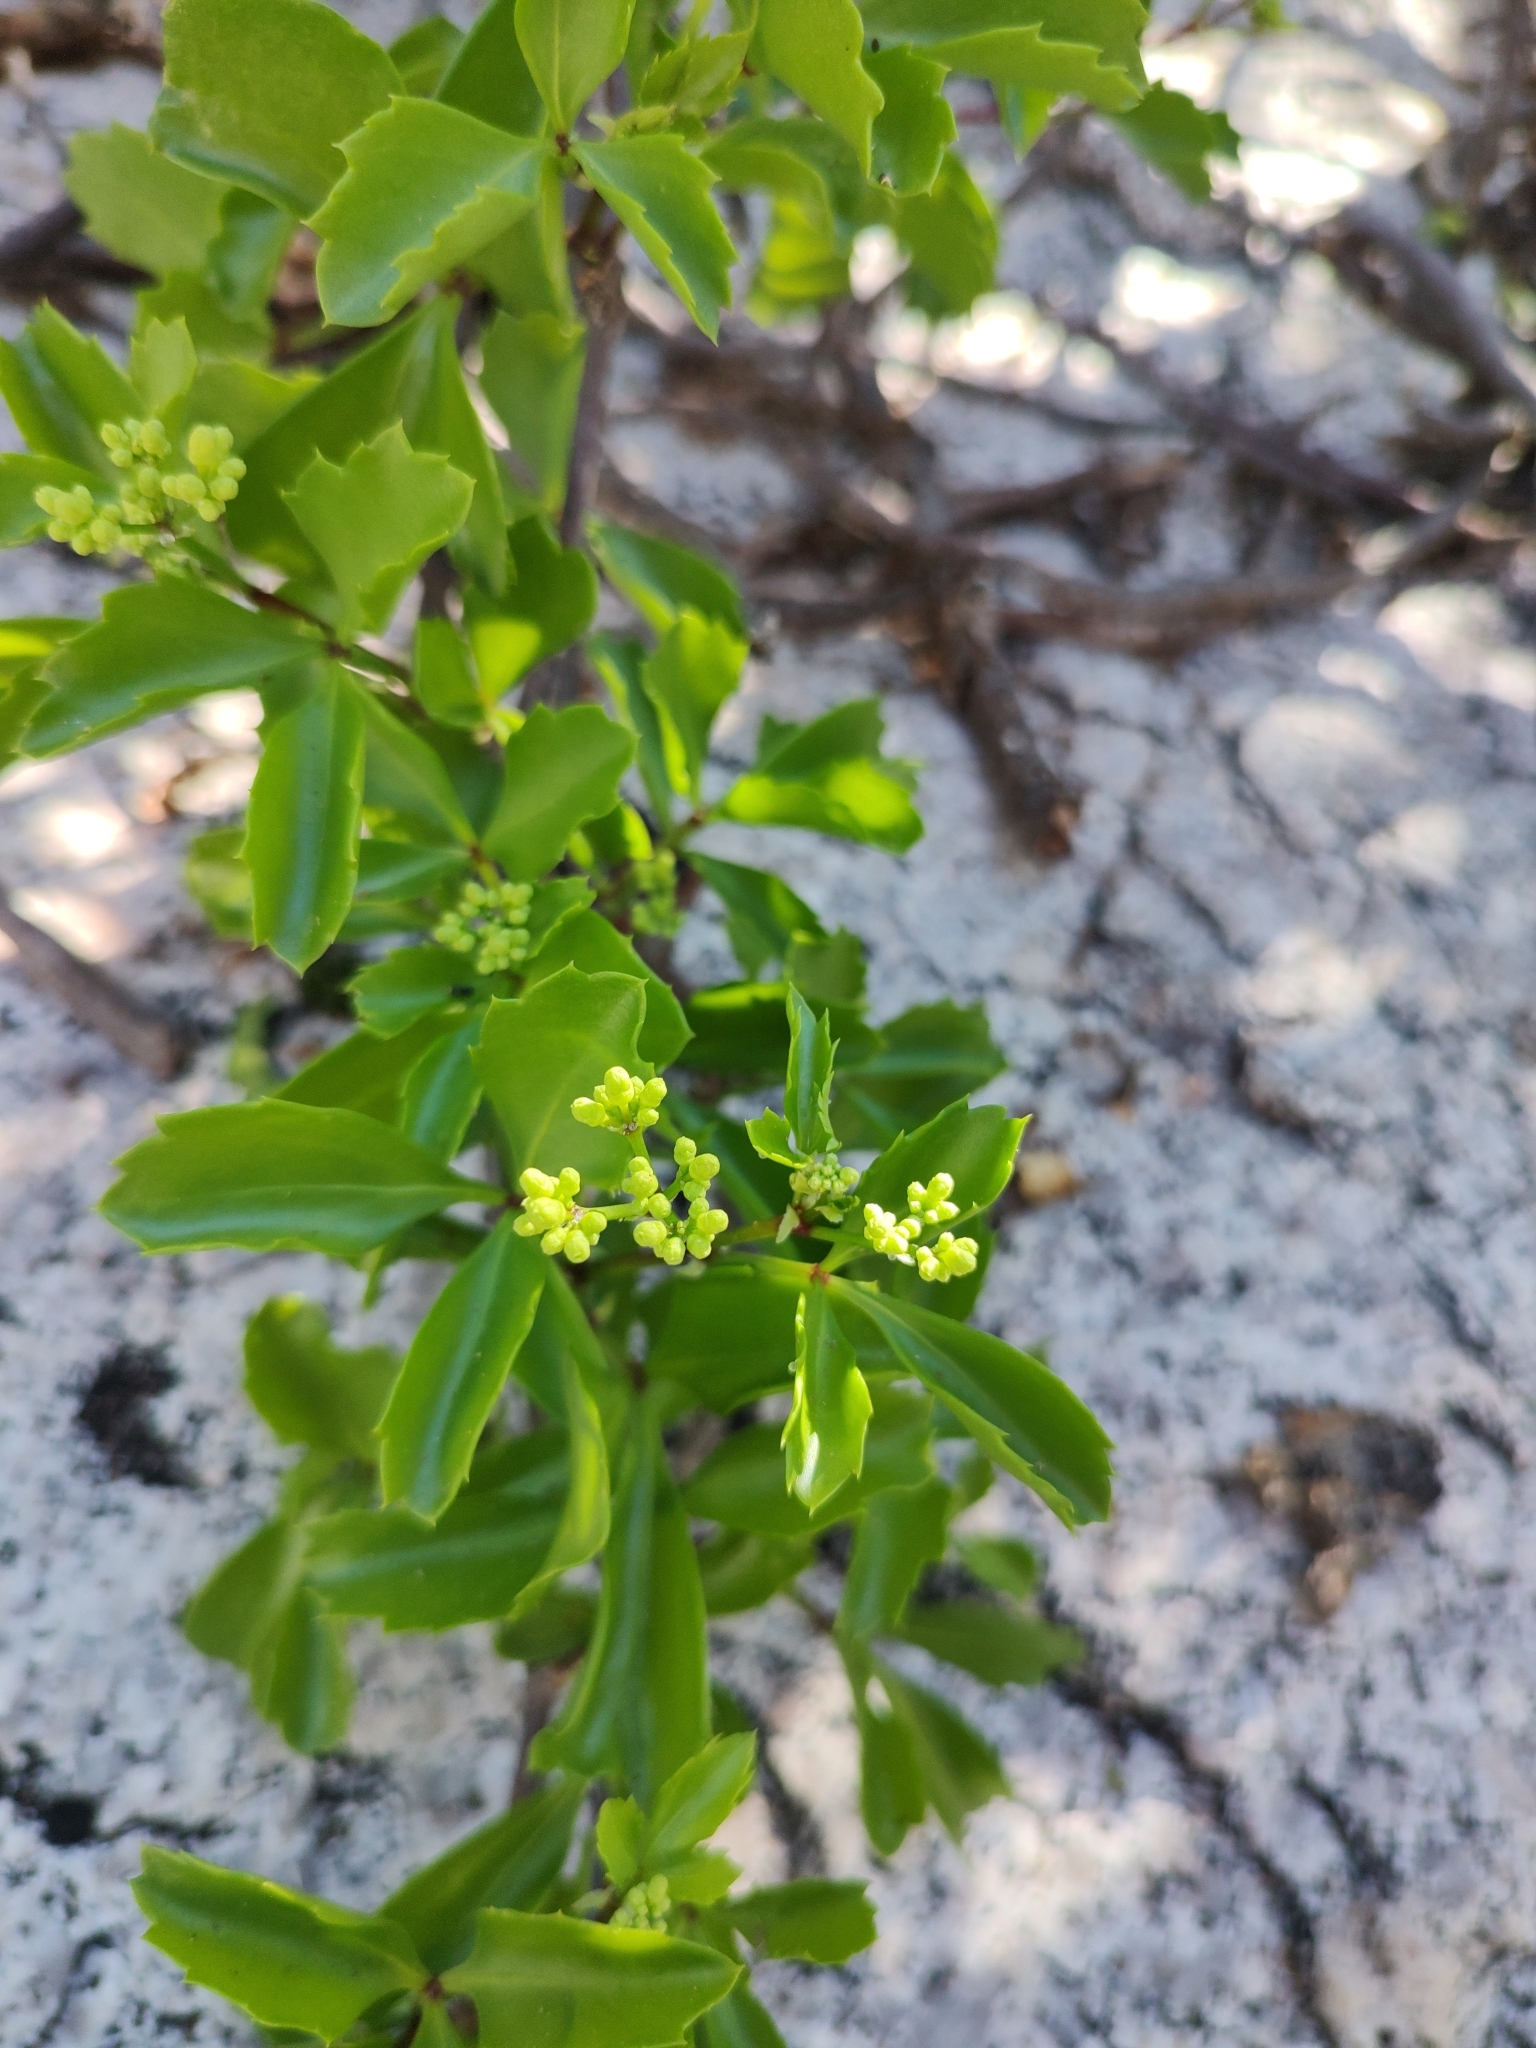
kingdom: Plantae
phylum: Tracheophyta
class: Magnoliopsida
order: Vitales
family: Vitaceae
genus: Cissus
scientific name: Cissus trifoliata
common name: Vine-sorrel
